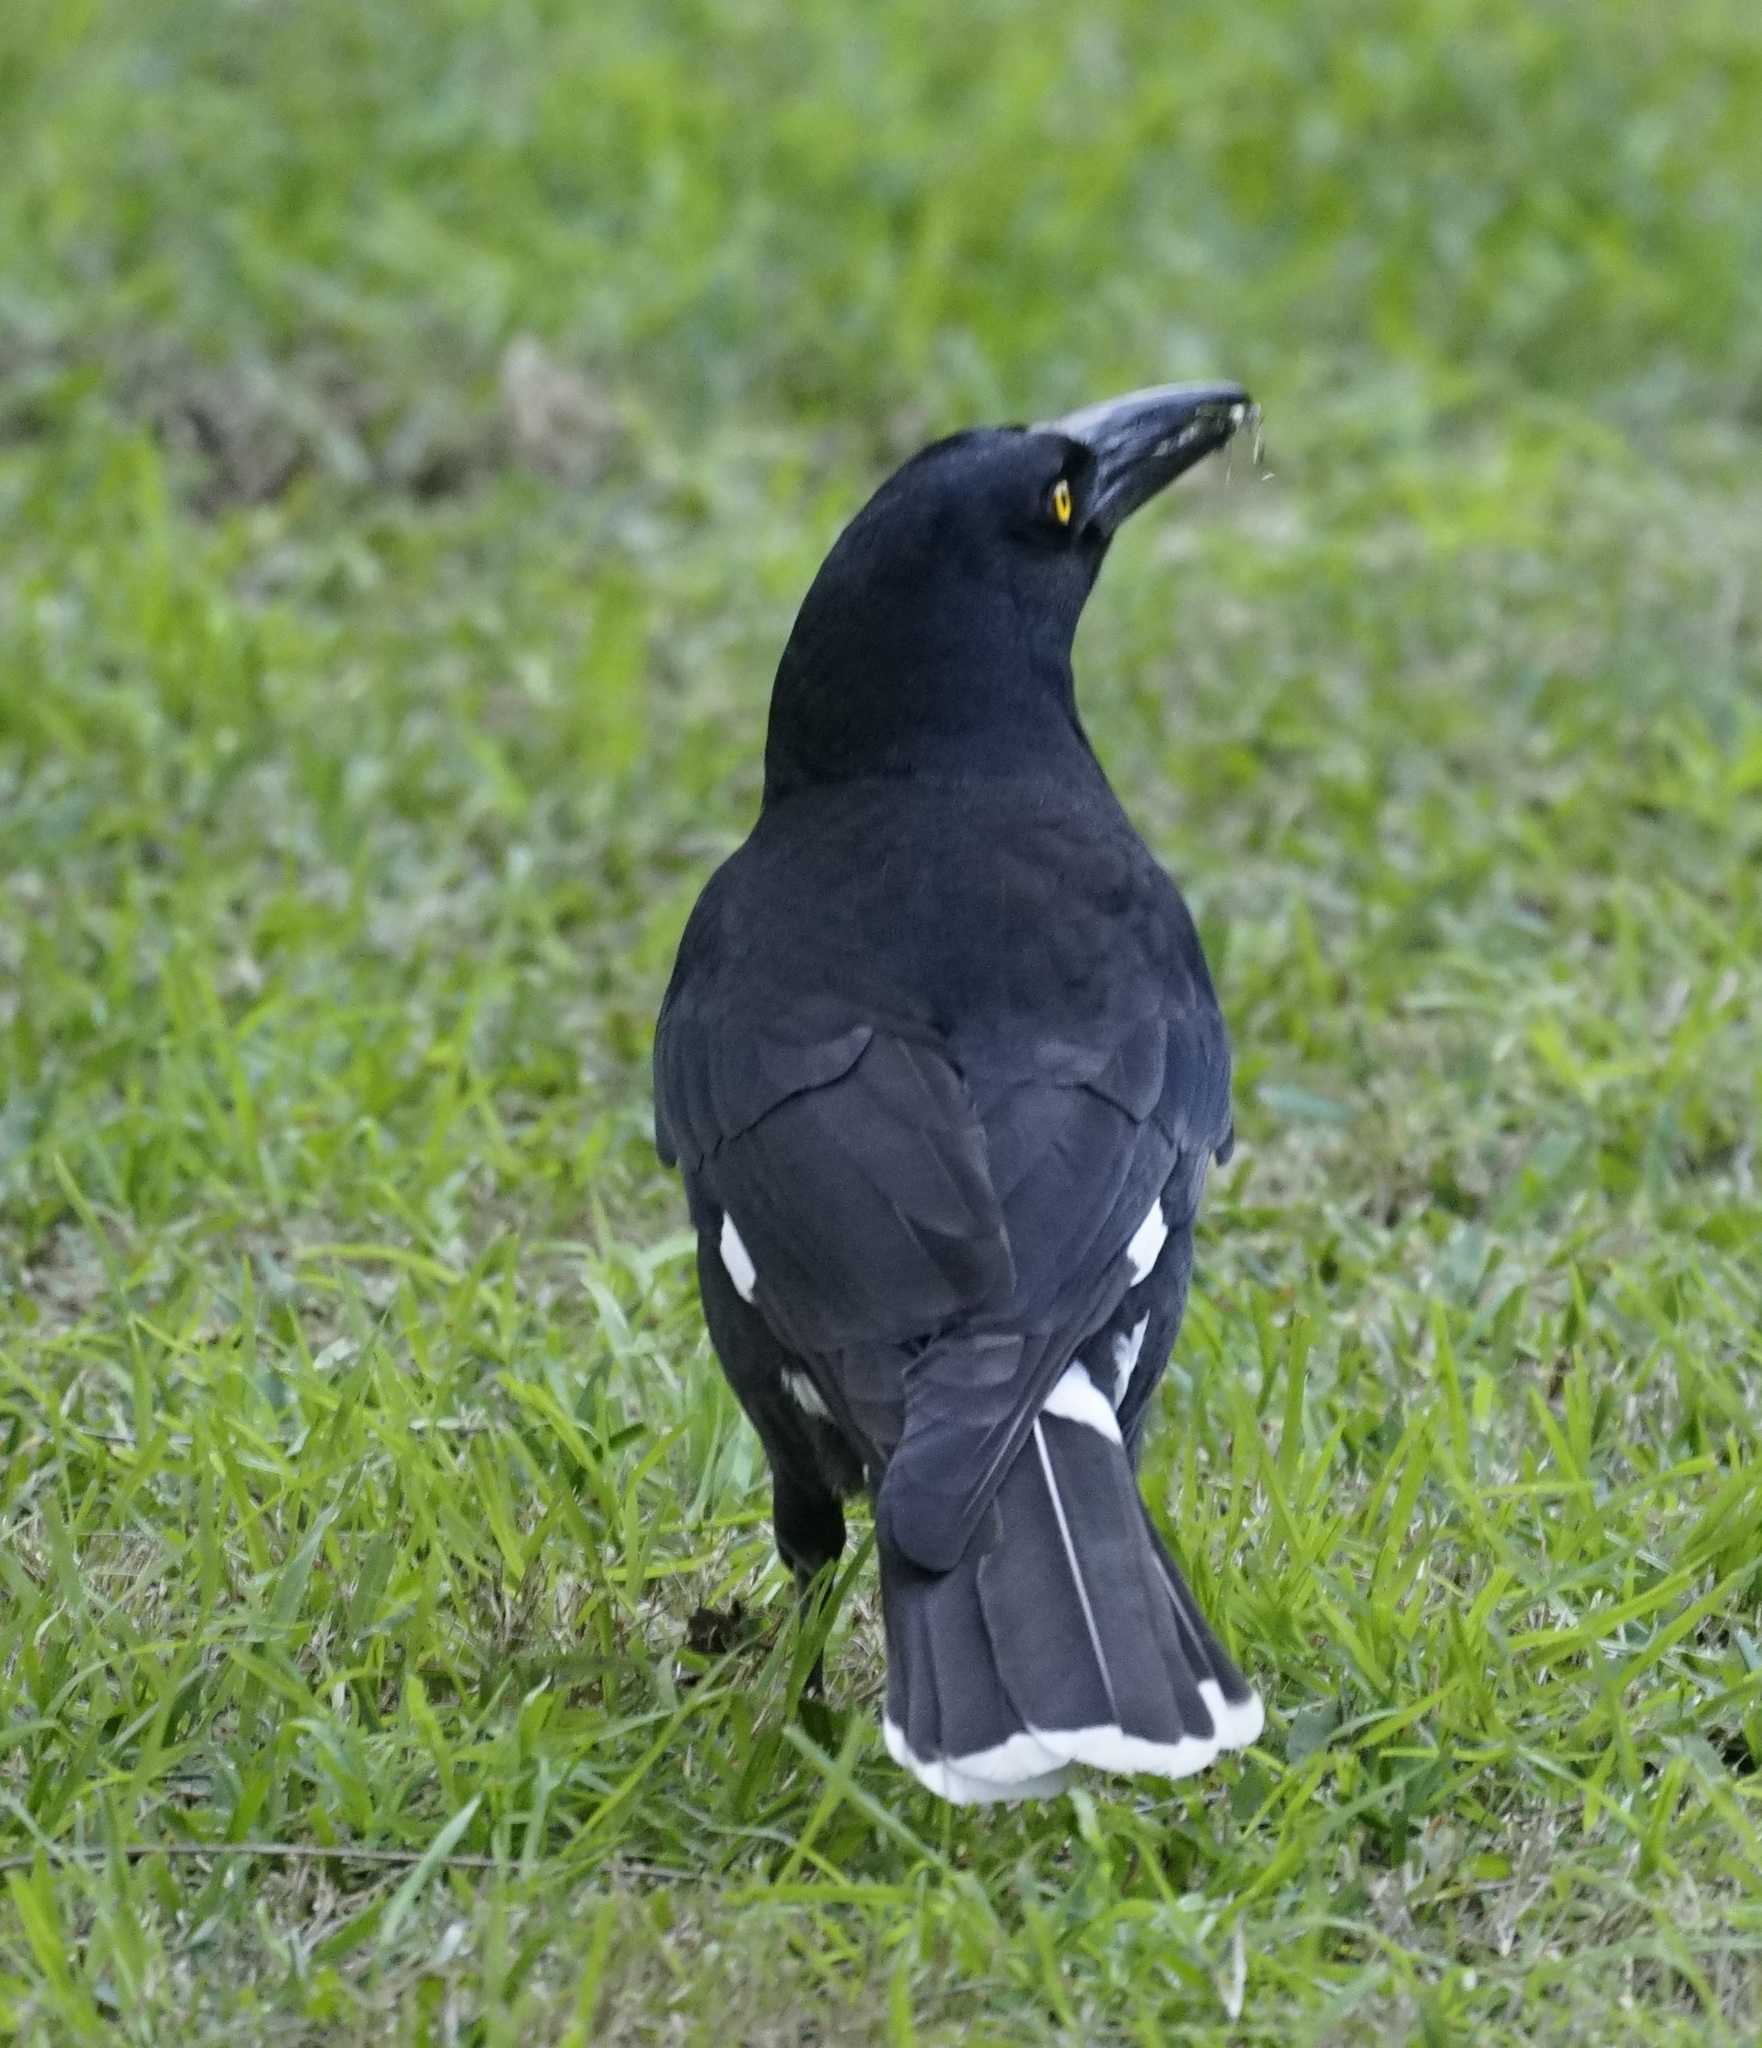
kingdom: Animalia
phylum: Chordata
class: Aves
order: Passeriformes
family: Cracticidae
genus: Strepera
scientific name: Strepera graculina
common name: Pied currawong
